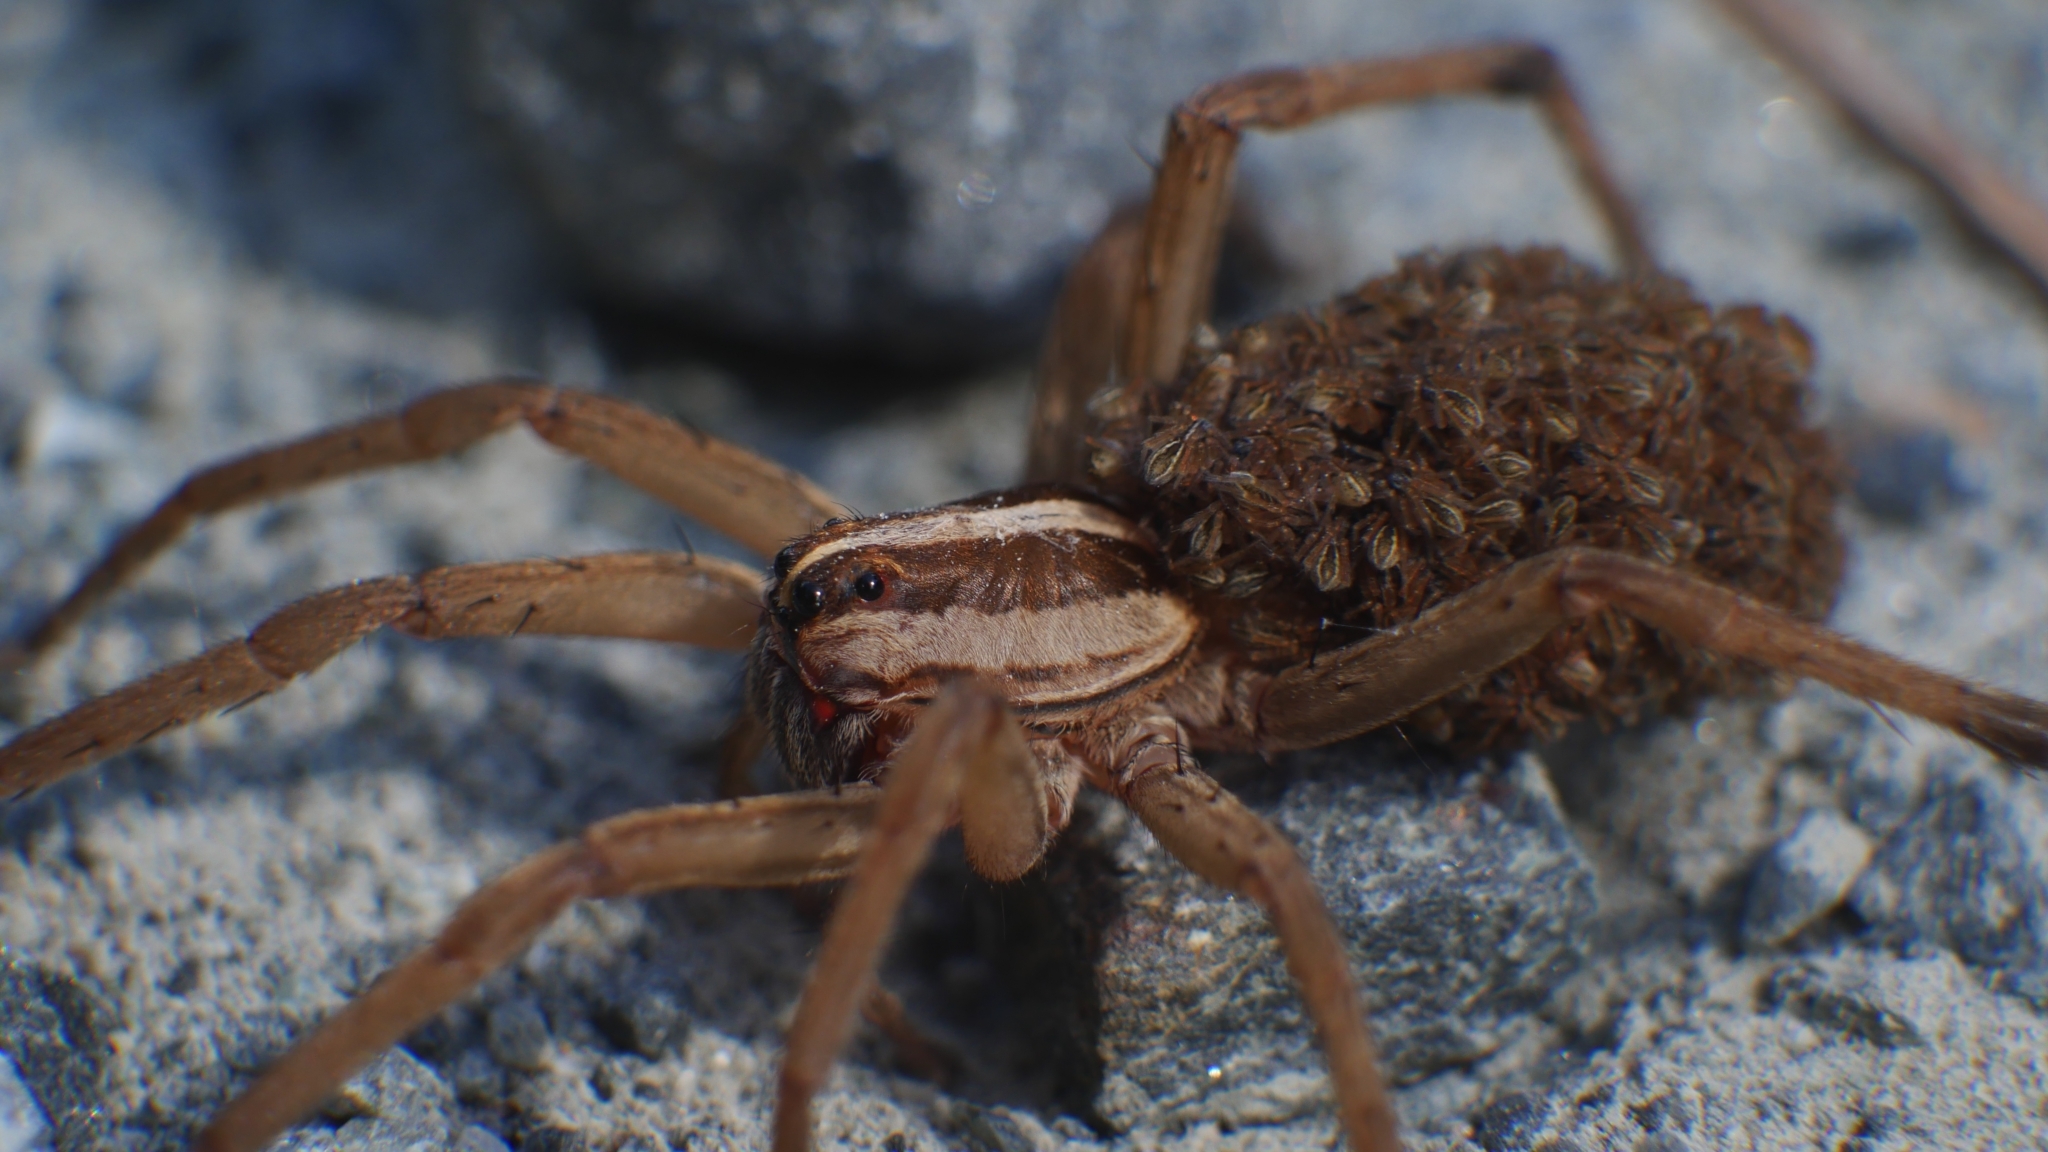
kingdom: Animalia
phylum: Arthropoda
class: Arachnida
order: Araneae
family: Lycosidae
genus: Rabidosa
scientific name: Rabidosa
